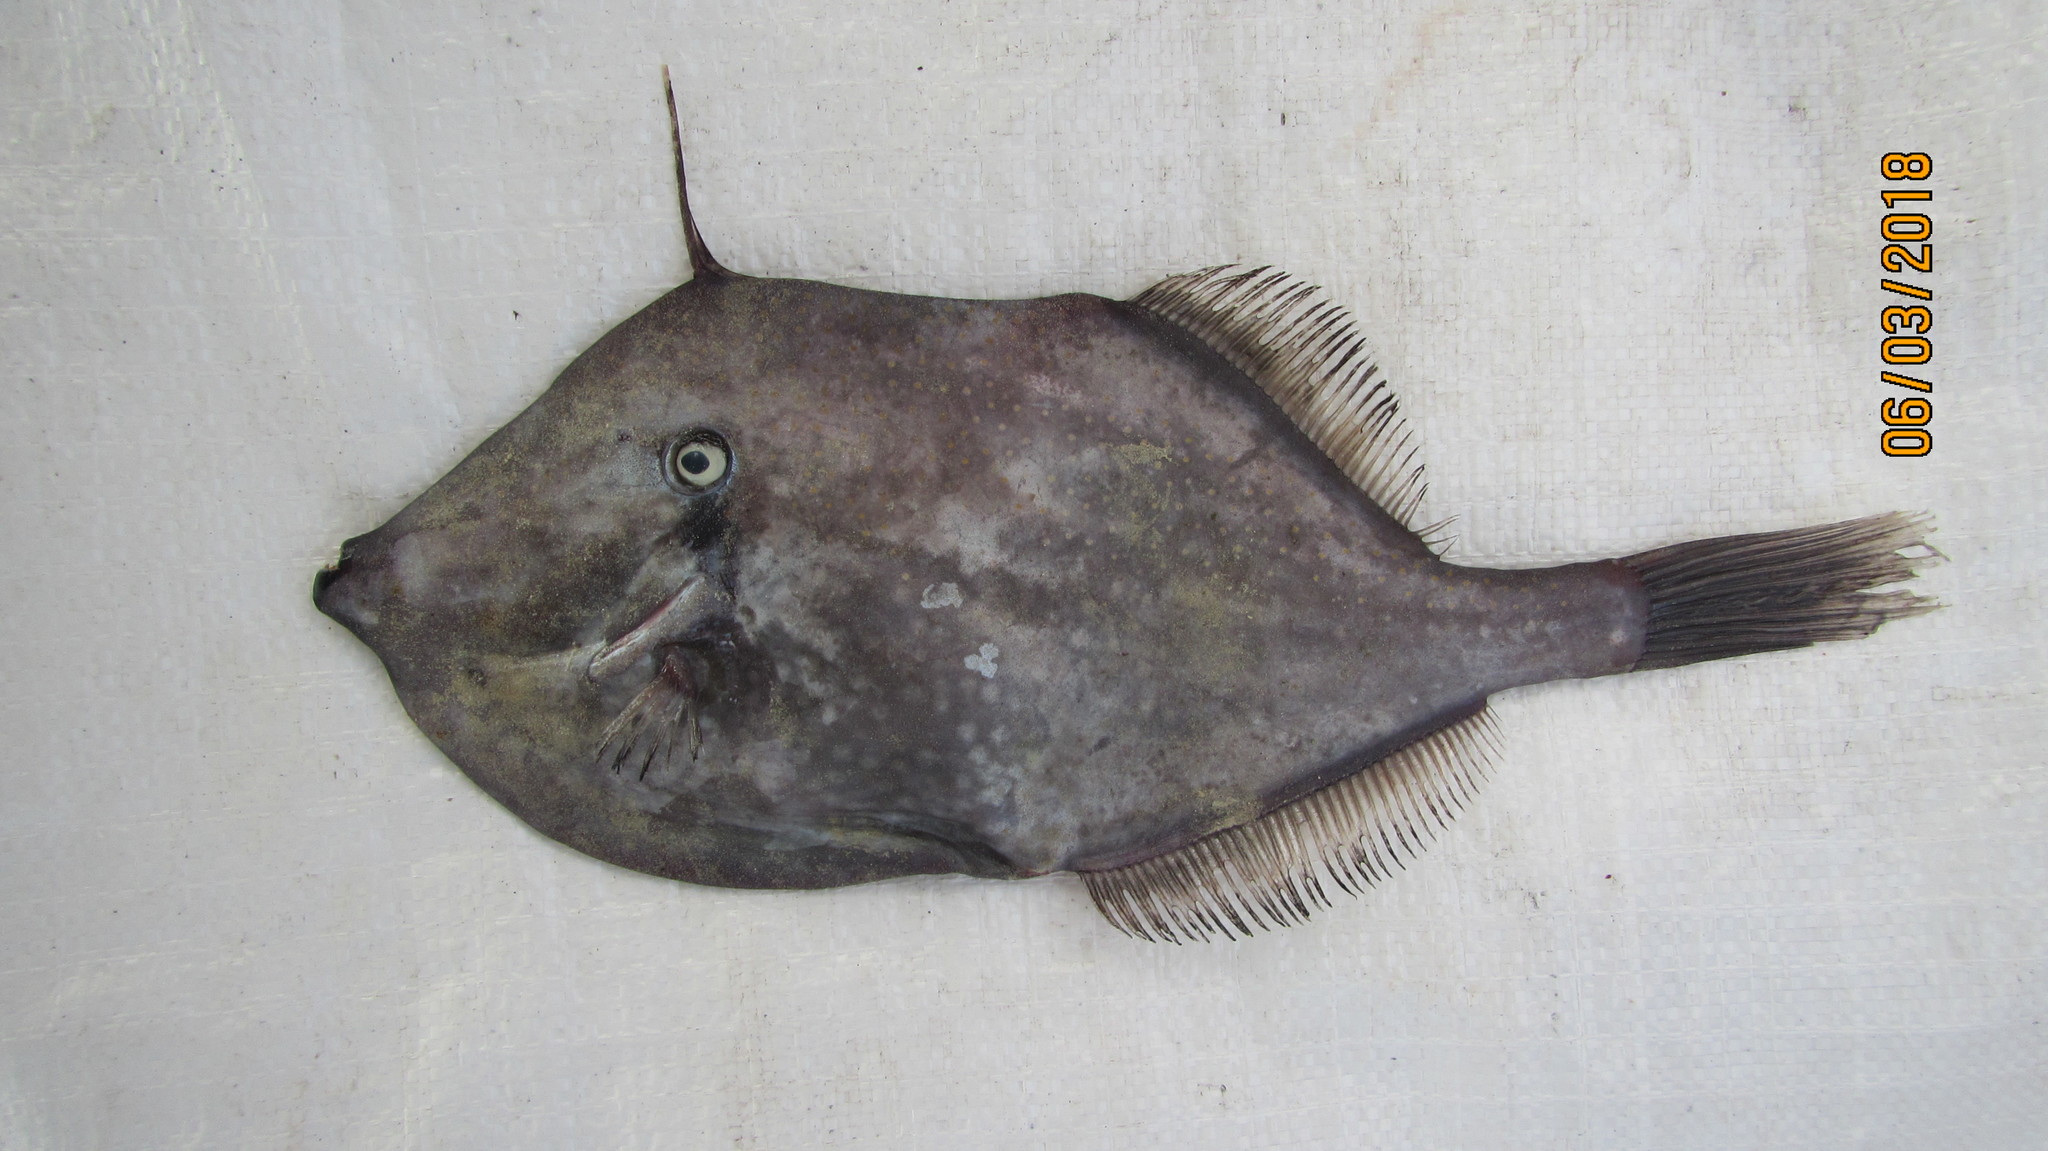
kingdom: Animalia
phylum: Chordata
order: Tetraodontiformes
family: Monacanthidae
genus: Aluterus
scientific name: Aluterus schoepfii
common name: Orange filefish
